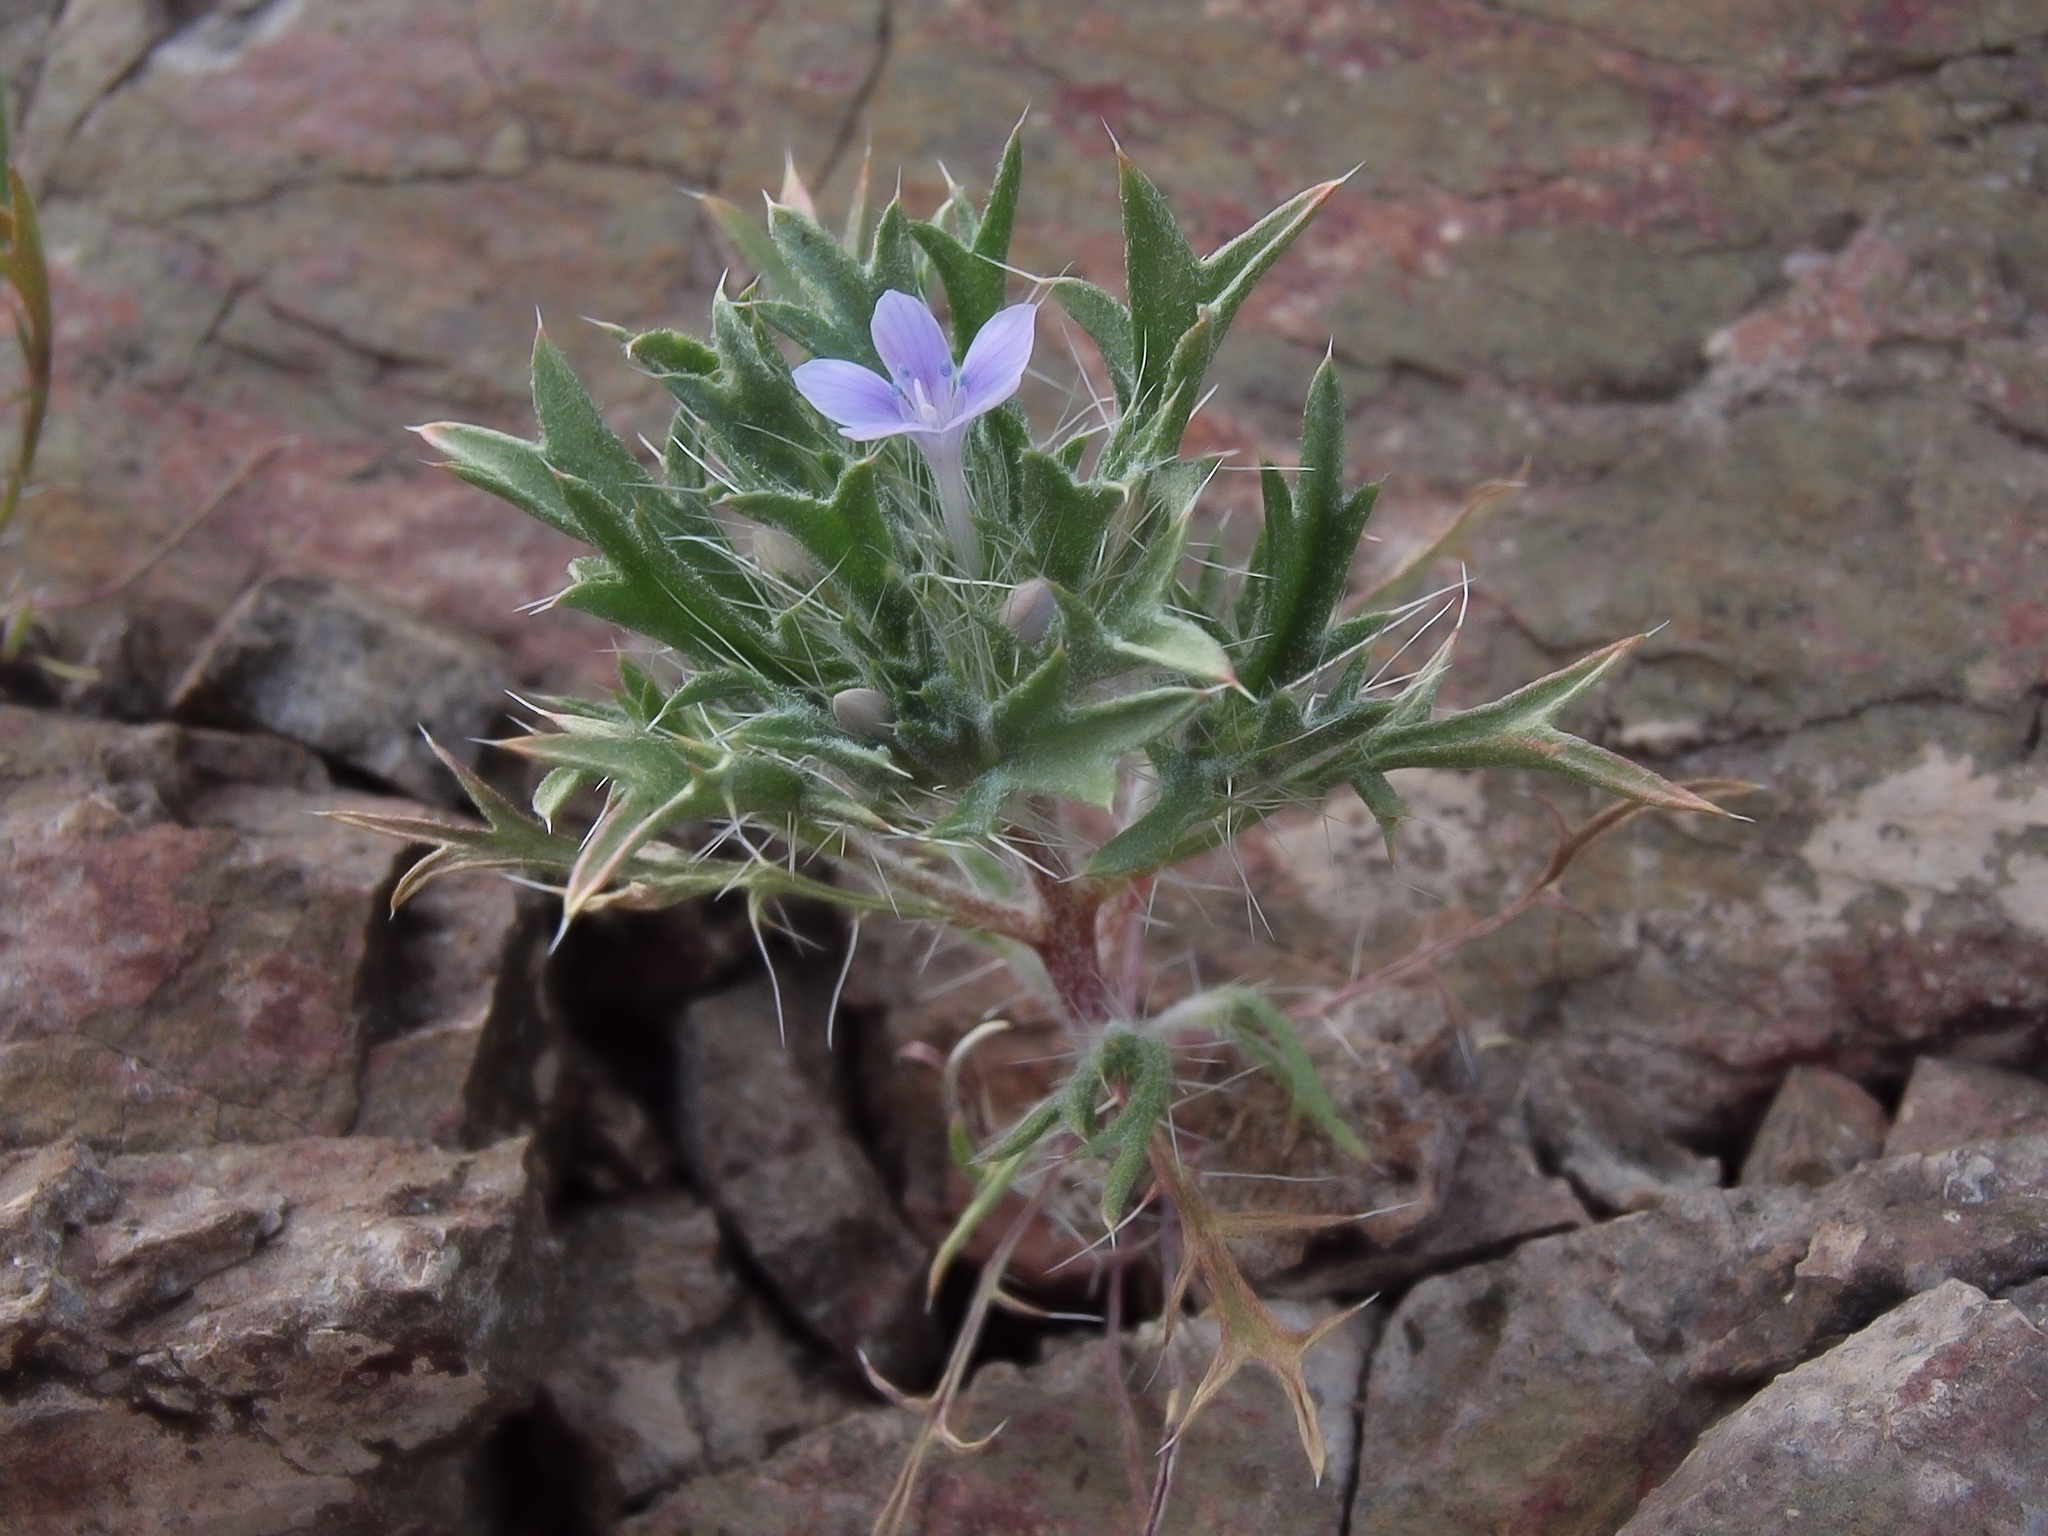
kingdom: Plantae
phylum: Tracheophyta
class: Magnoliopsida
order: Ericales
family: Polemoniaceae
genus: Langloisia
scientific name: Langloisia setosissima
